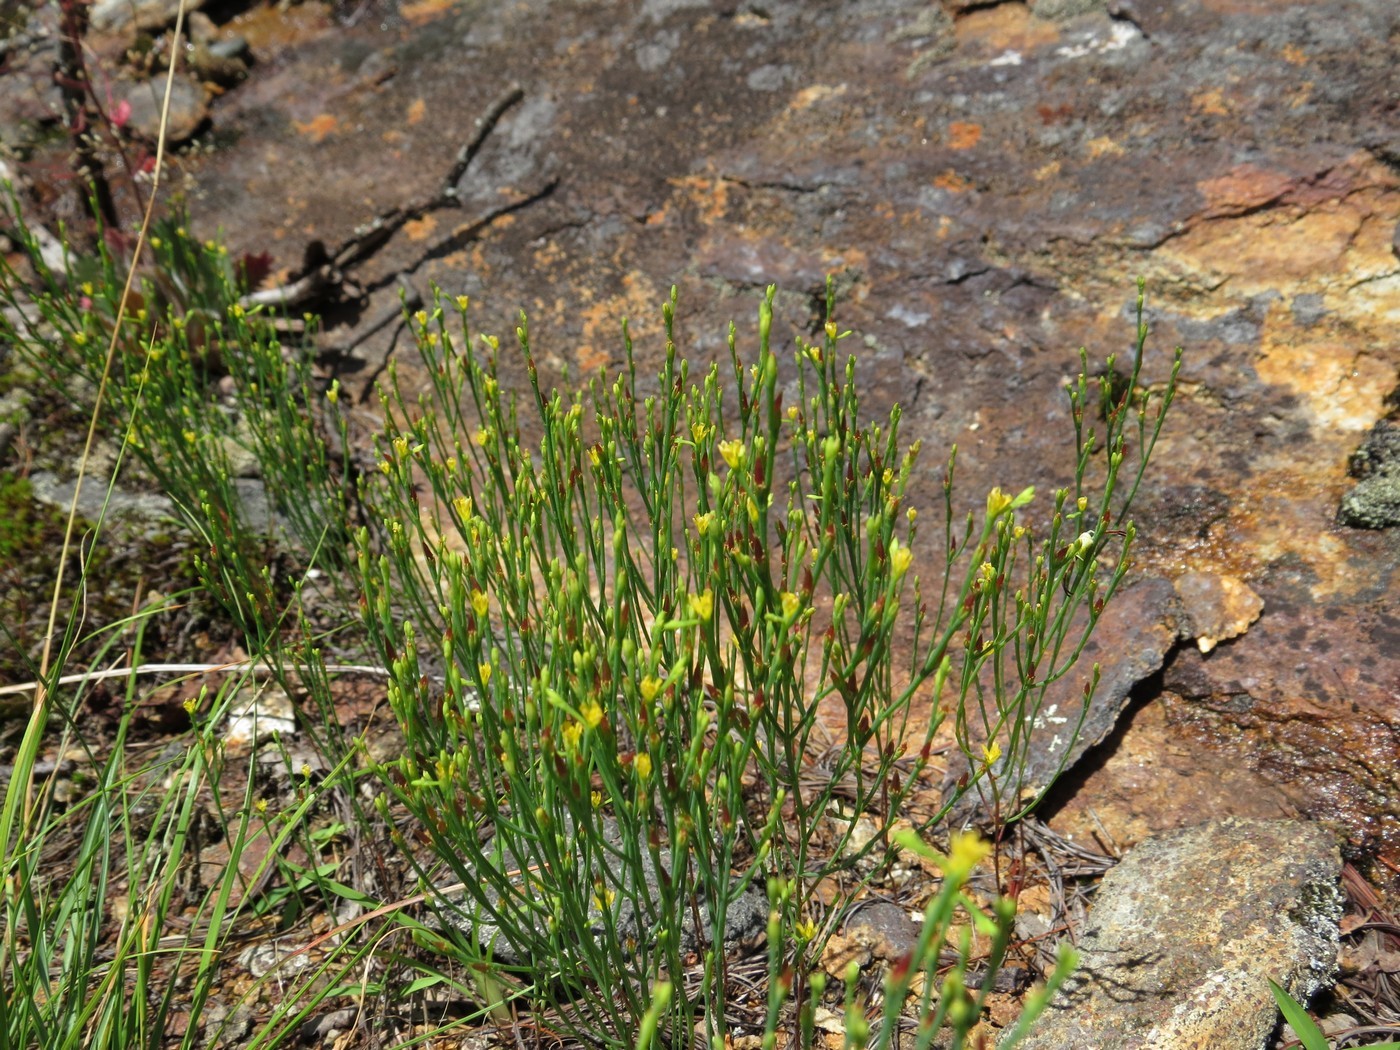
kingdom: Plantae
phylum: Tracheophyta
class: Magnoliopsida
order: Malpighiales
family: Hypericaceae
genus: Hypericum
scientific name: Hypericum gentianoides
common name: Gentian-leaved st. john's-wort
